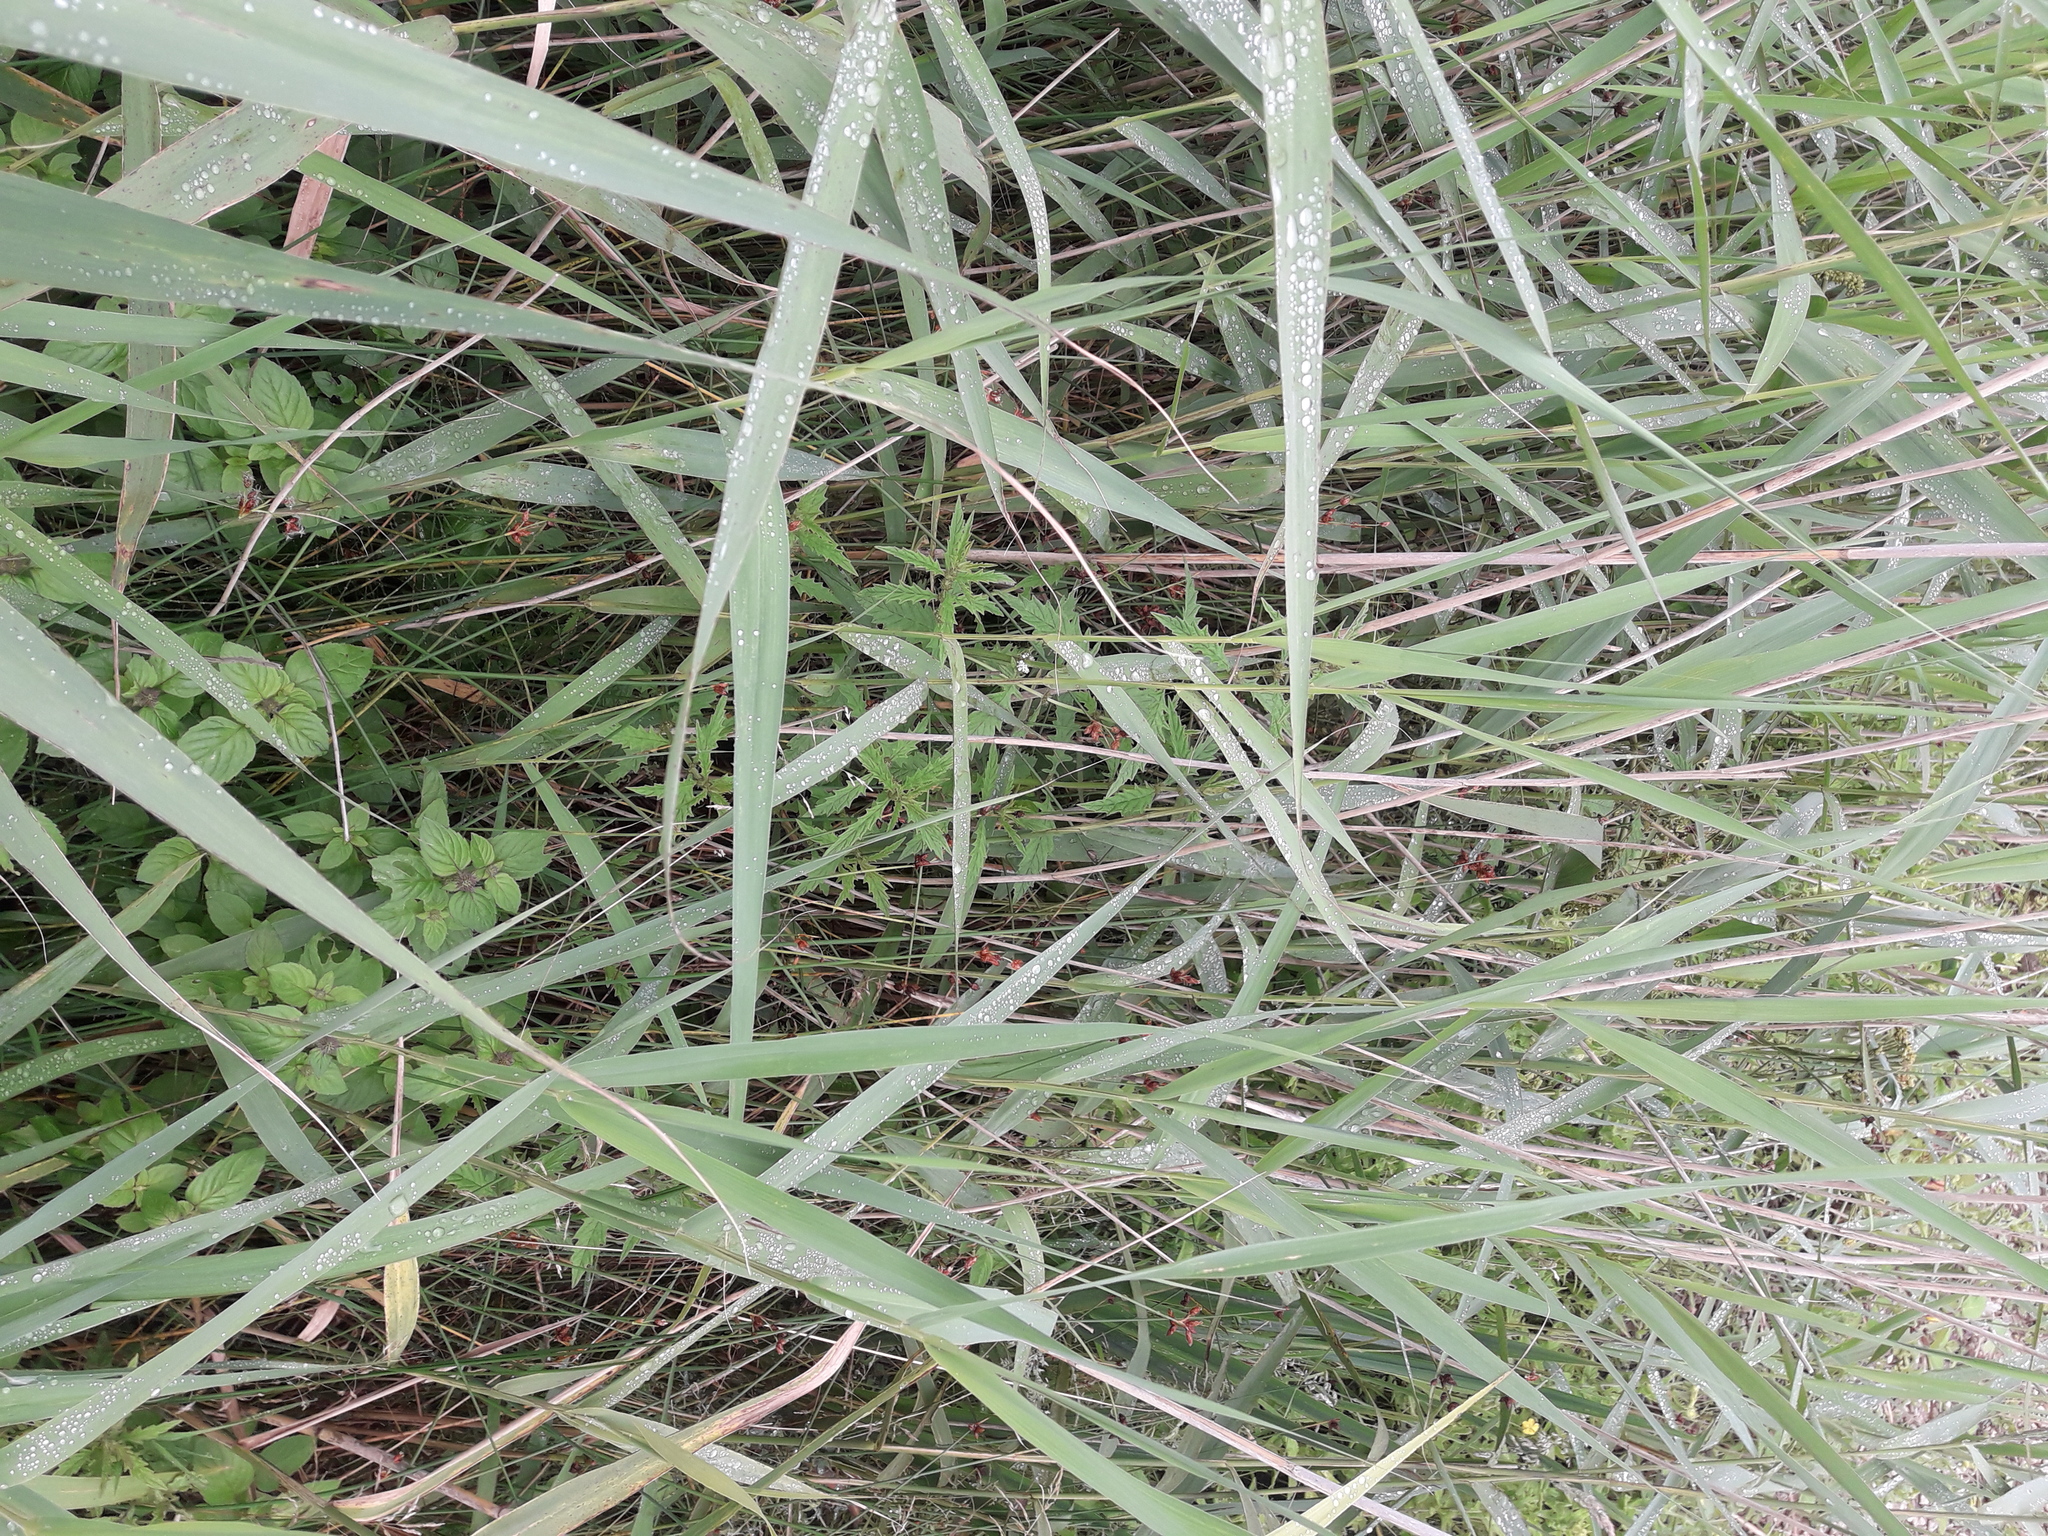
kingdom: Plantae
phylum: Tracheophyta
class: Magnoliopsida
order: Lamiales
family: Lamiaceae
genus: Lycopus
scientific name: Lycopus europaeus
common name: European bugleweed
